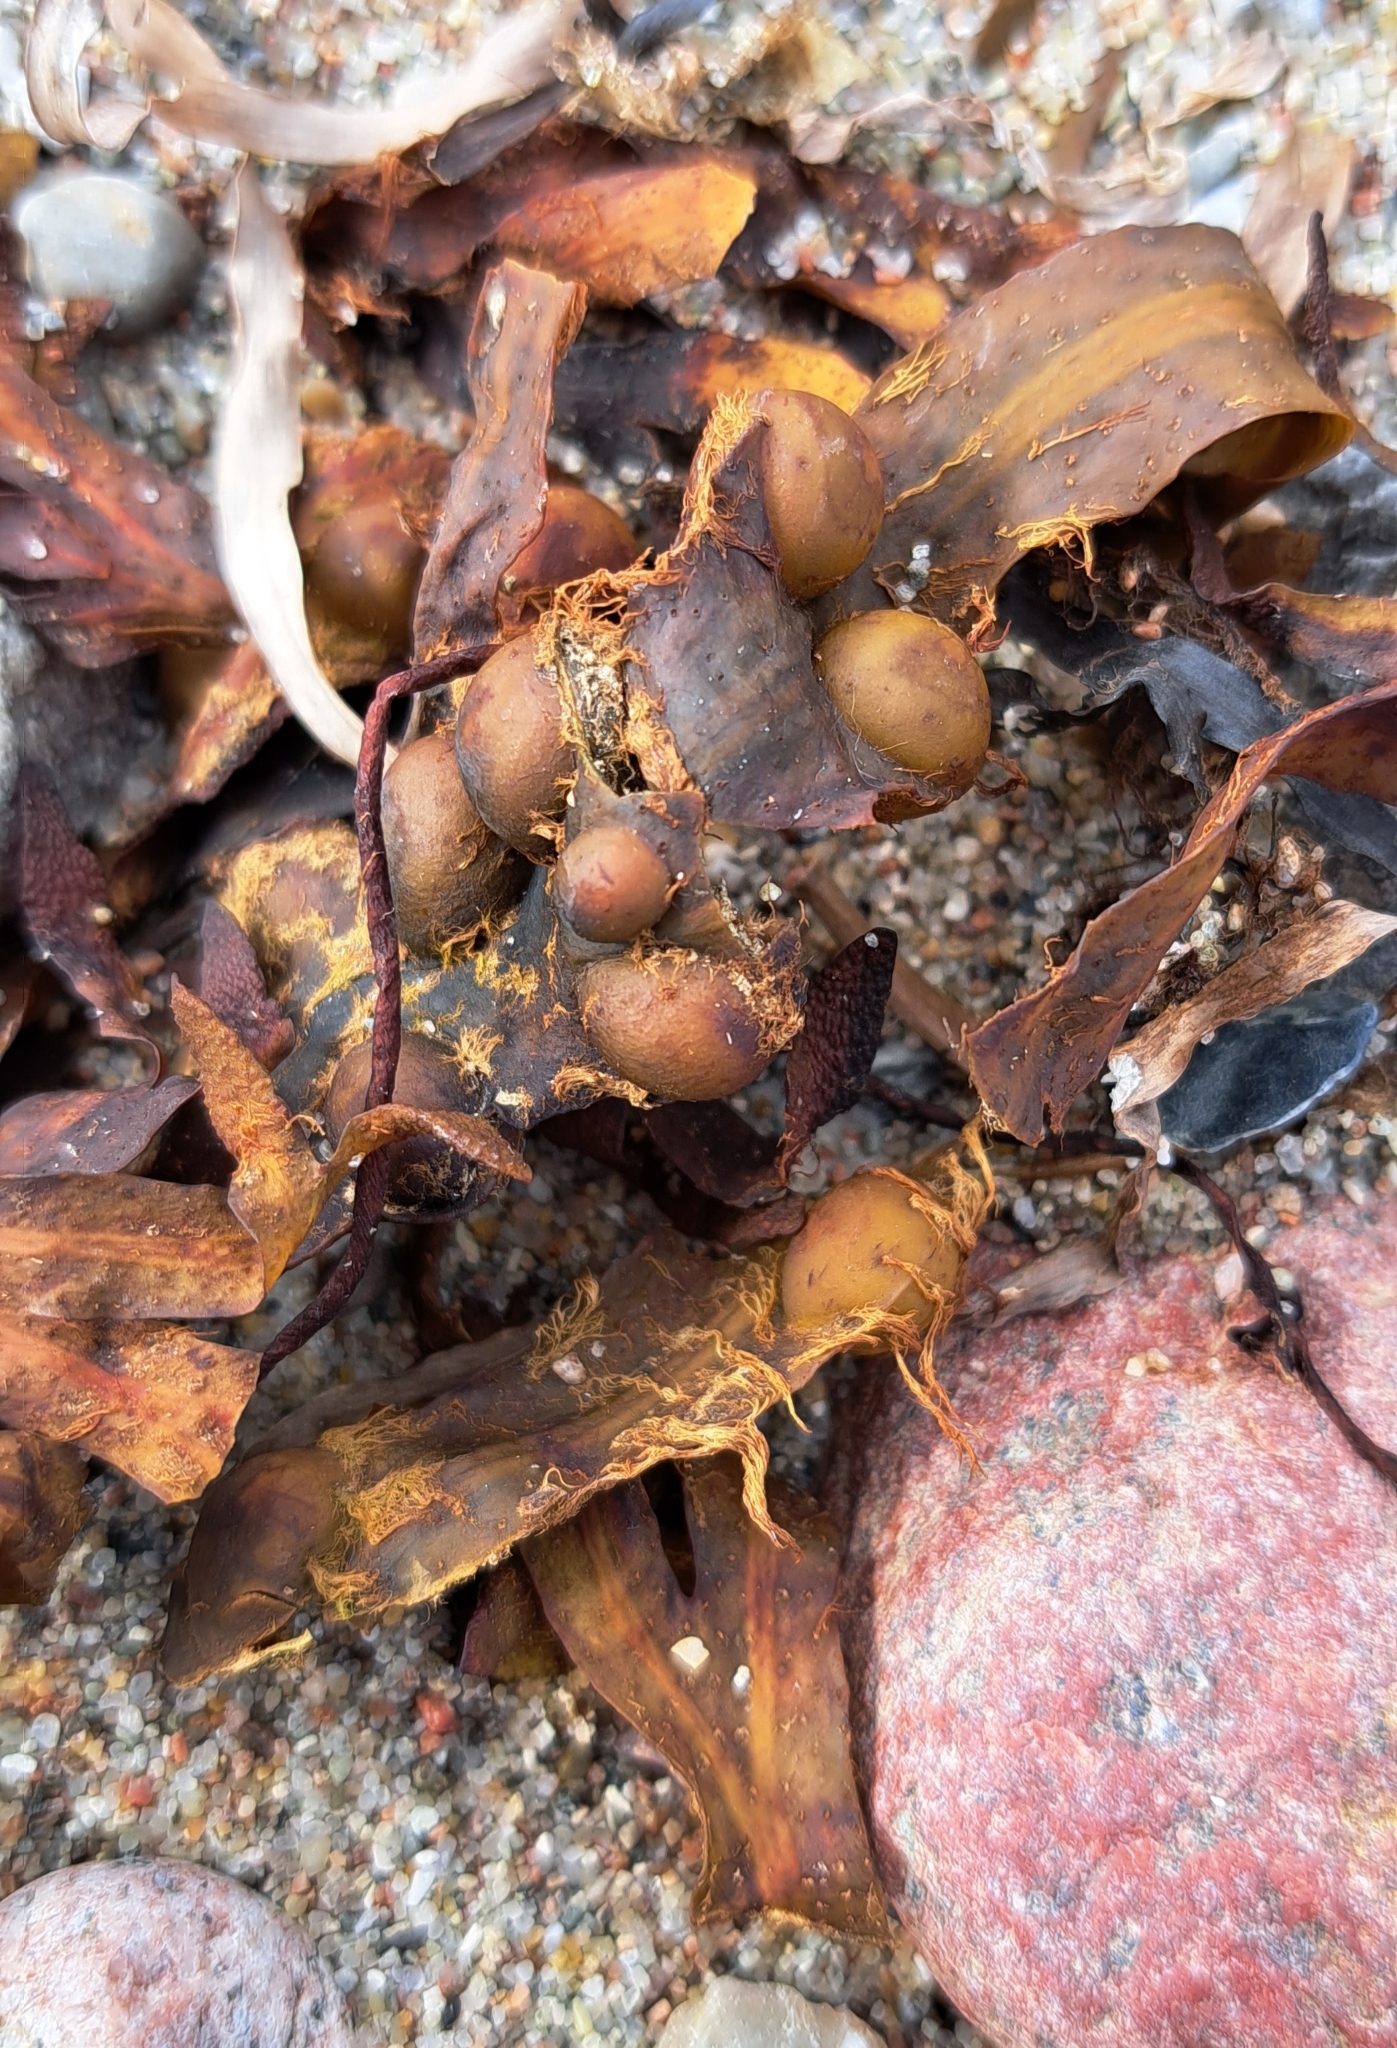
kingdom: Chromista
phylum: Ochrophyta
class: Phaeophyceae
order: Fucales
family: Fucaceae
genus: Fucus
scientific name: Fucus vesiculosus
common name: Bladder wrack
